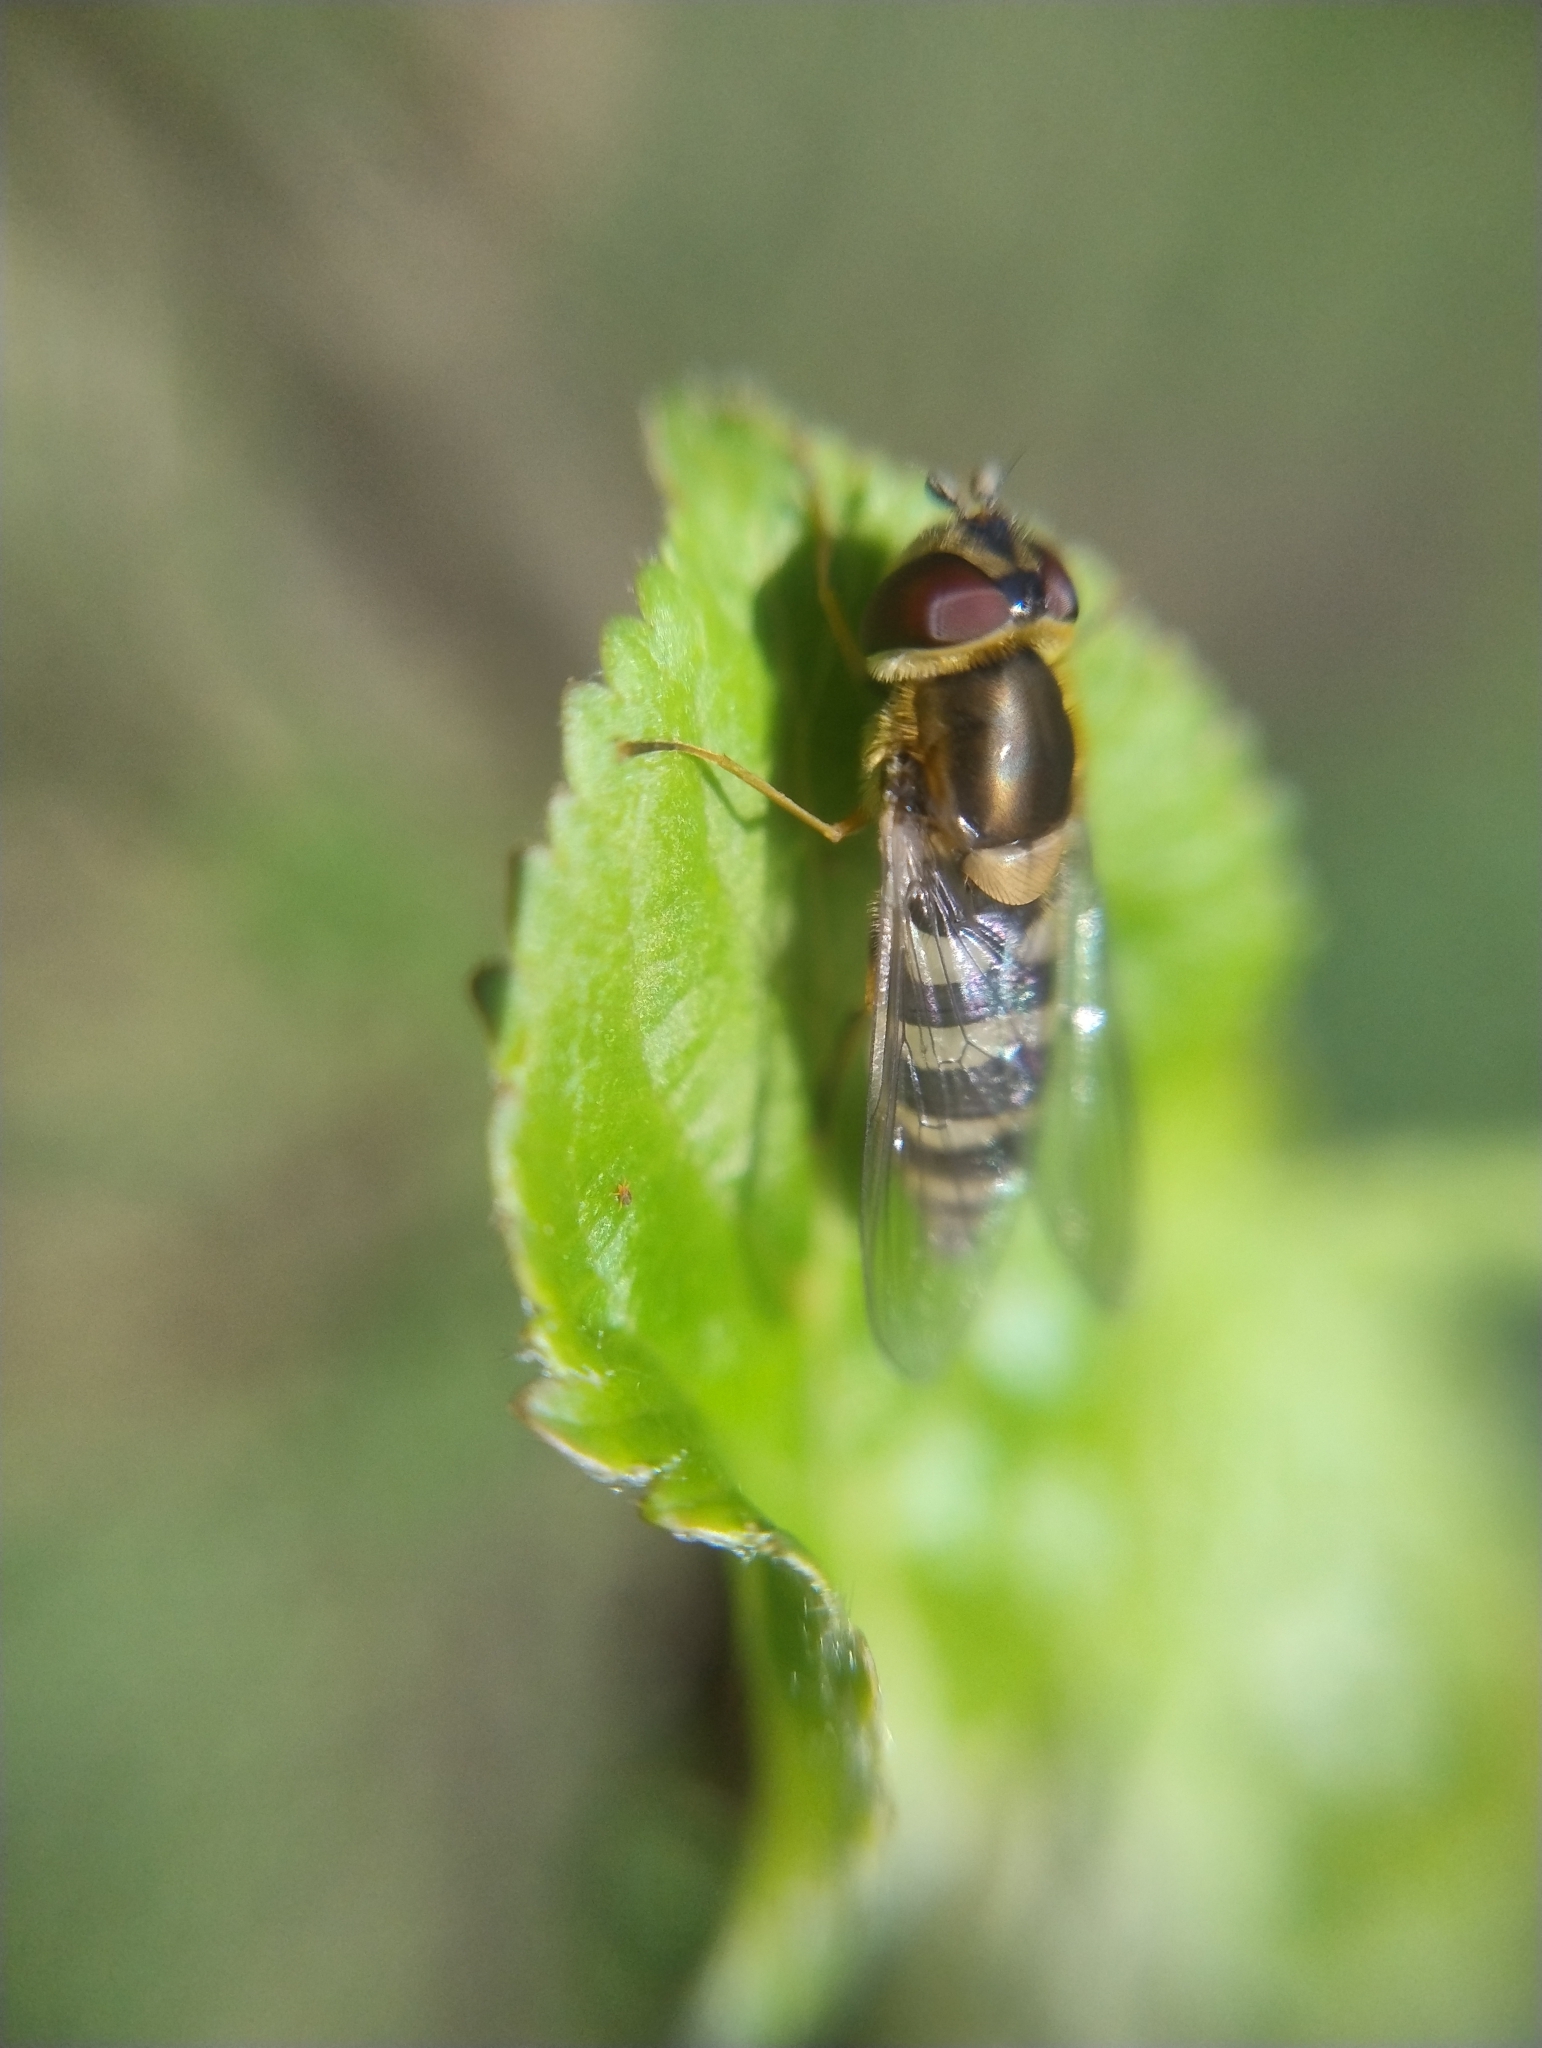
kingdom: Animalia
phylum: Arthropoda
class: Insecta
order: Diptera
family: Syrphidae
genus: Eupeodes
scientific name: Eupeodes corollae
